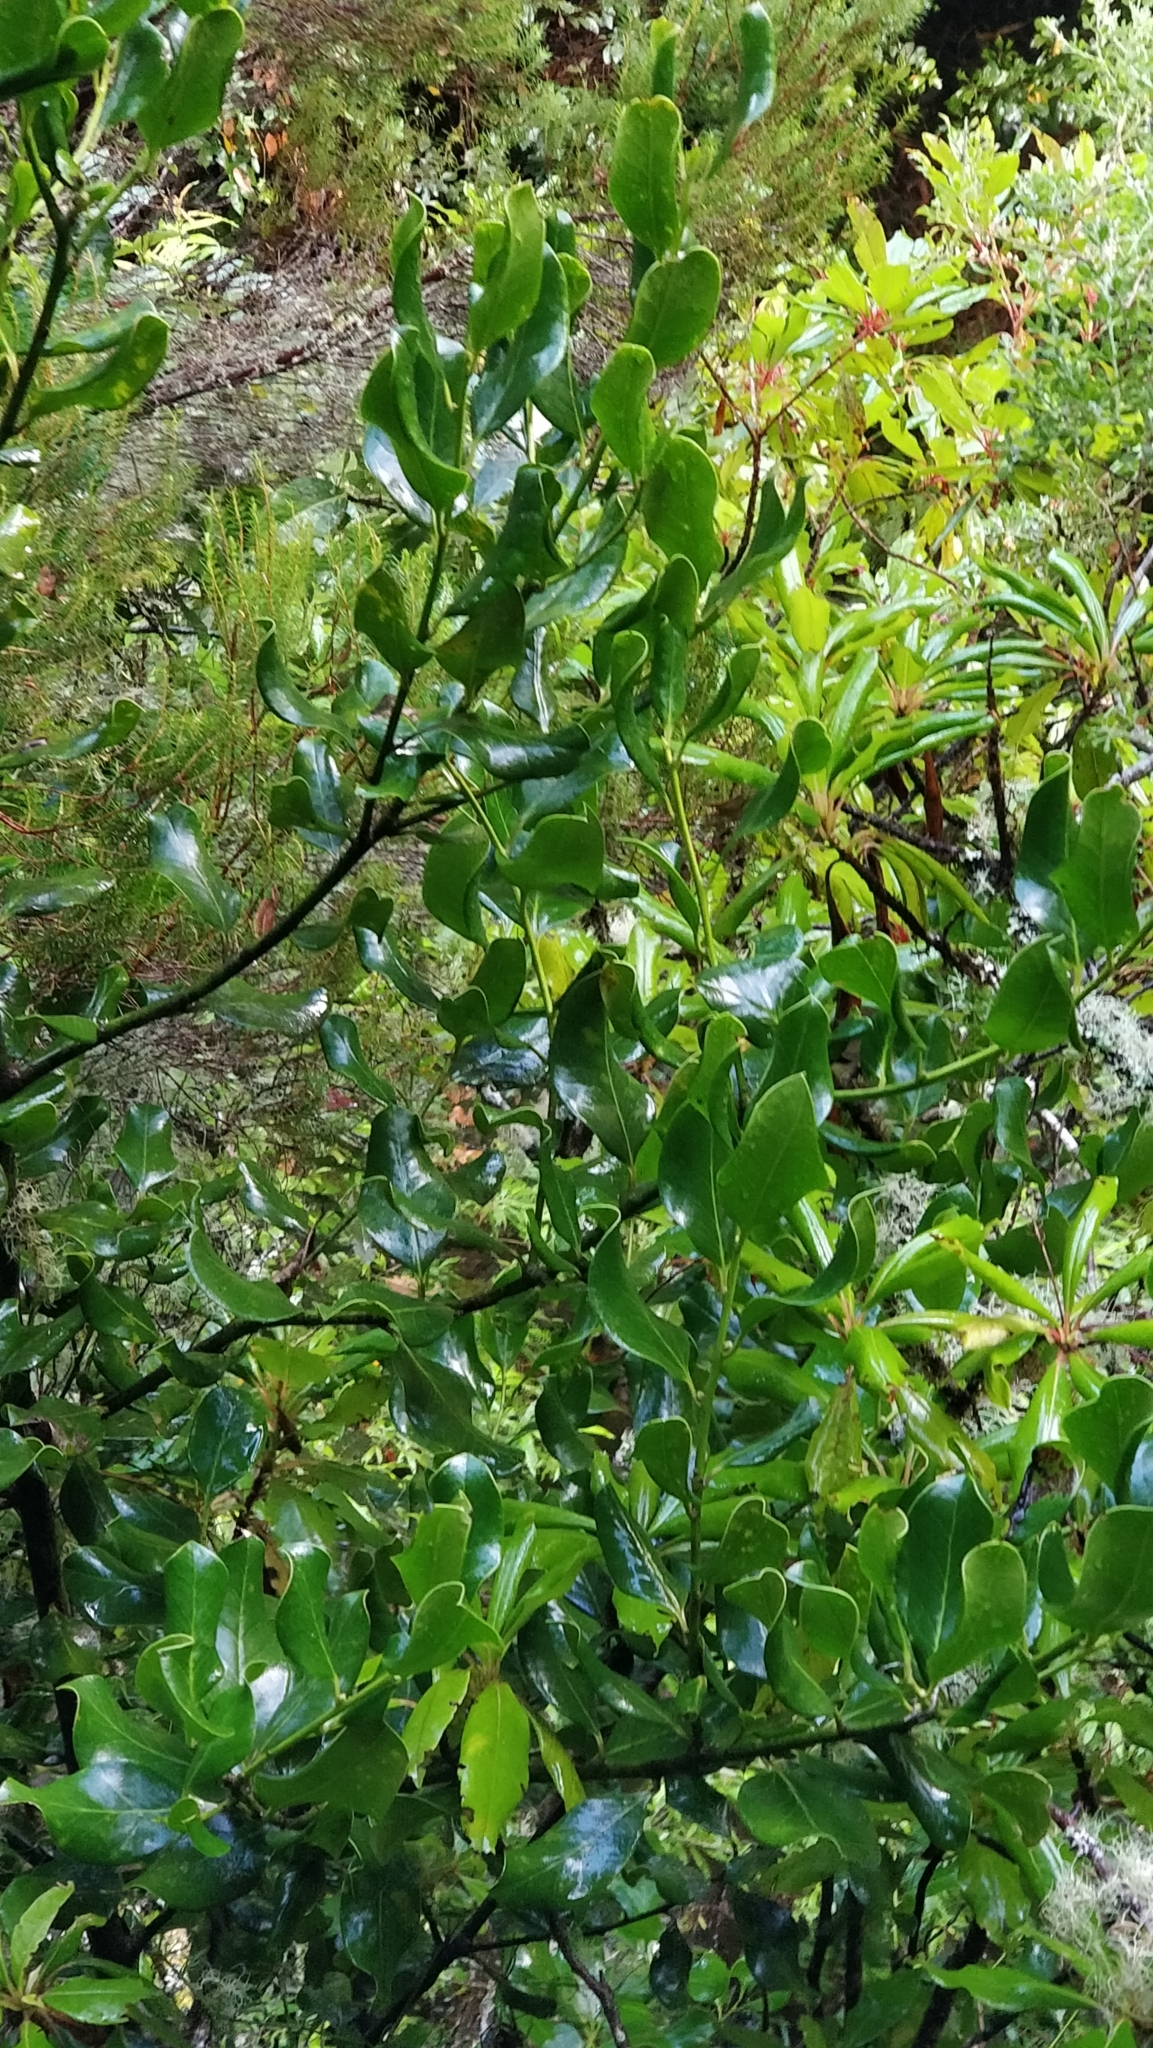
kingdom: Plantae
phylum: Tracheophyta
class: Magnoliopsida
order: Aquifoliales
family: Aquifoliaceae
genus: Ilex
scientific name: Ilex perado
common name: Madeira holly
